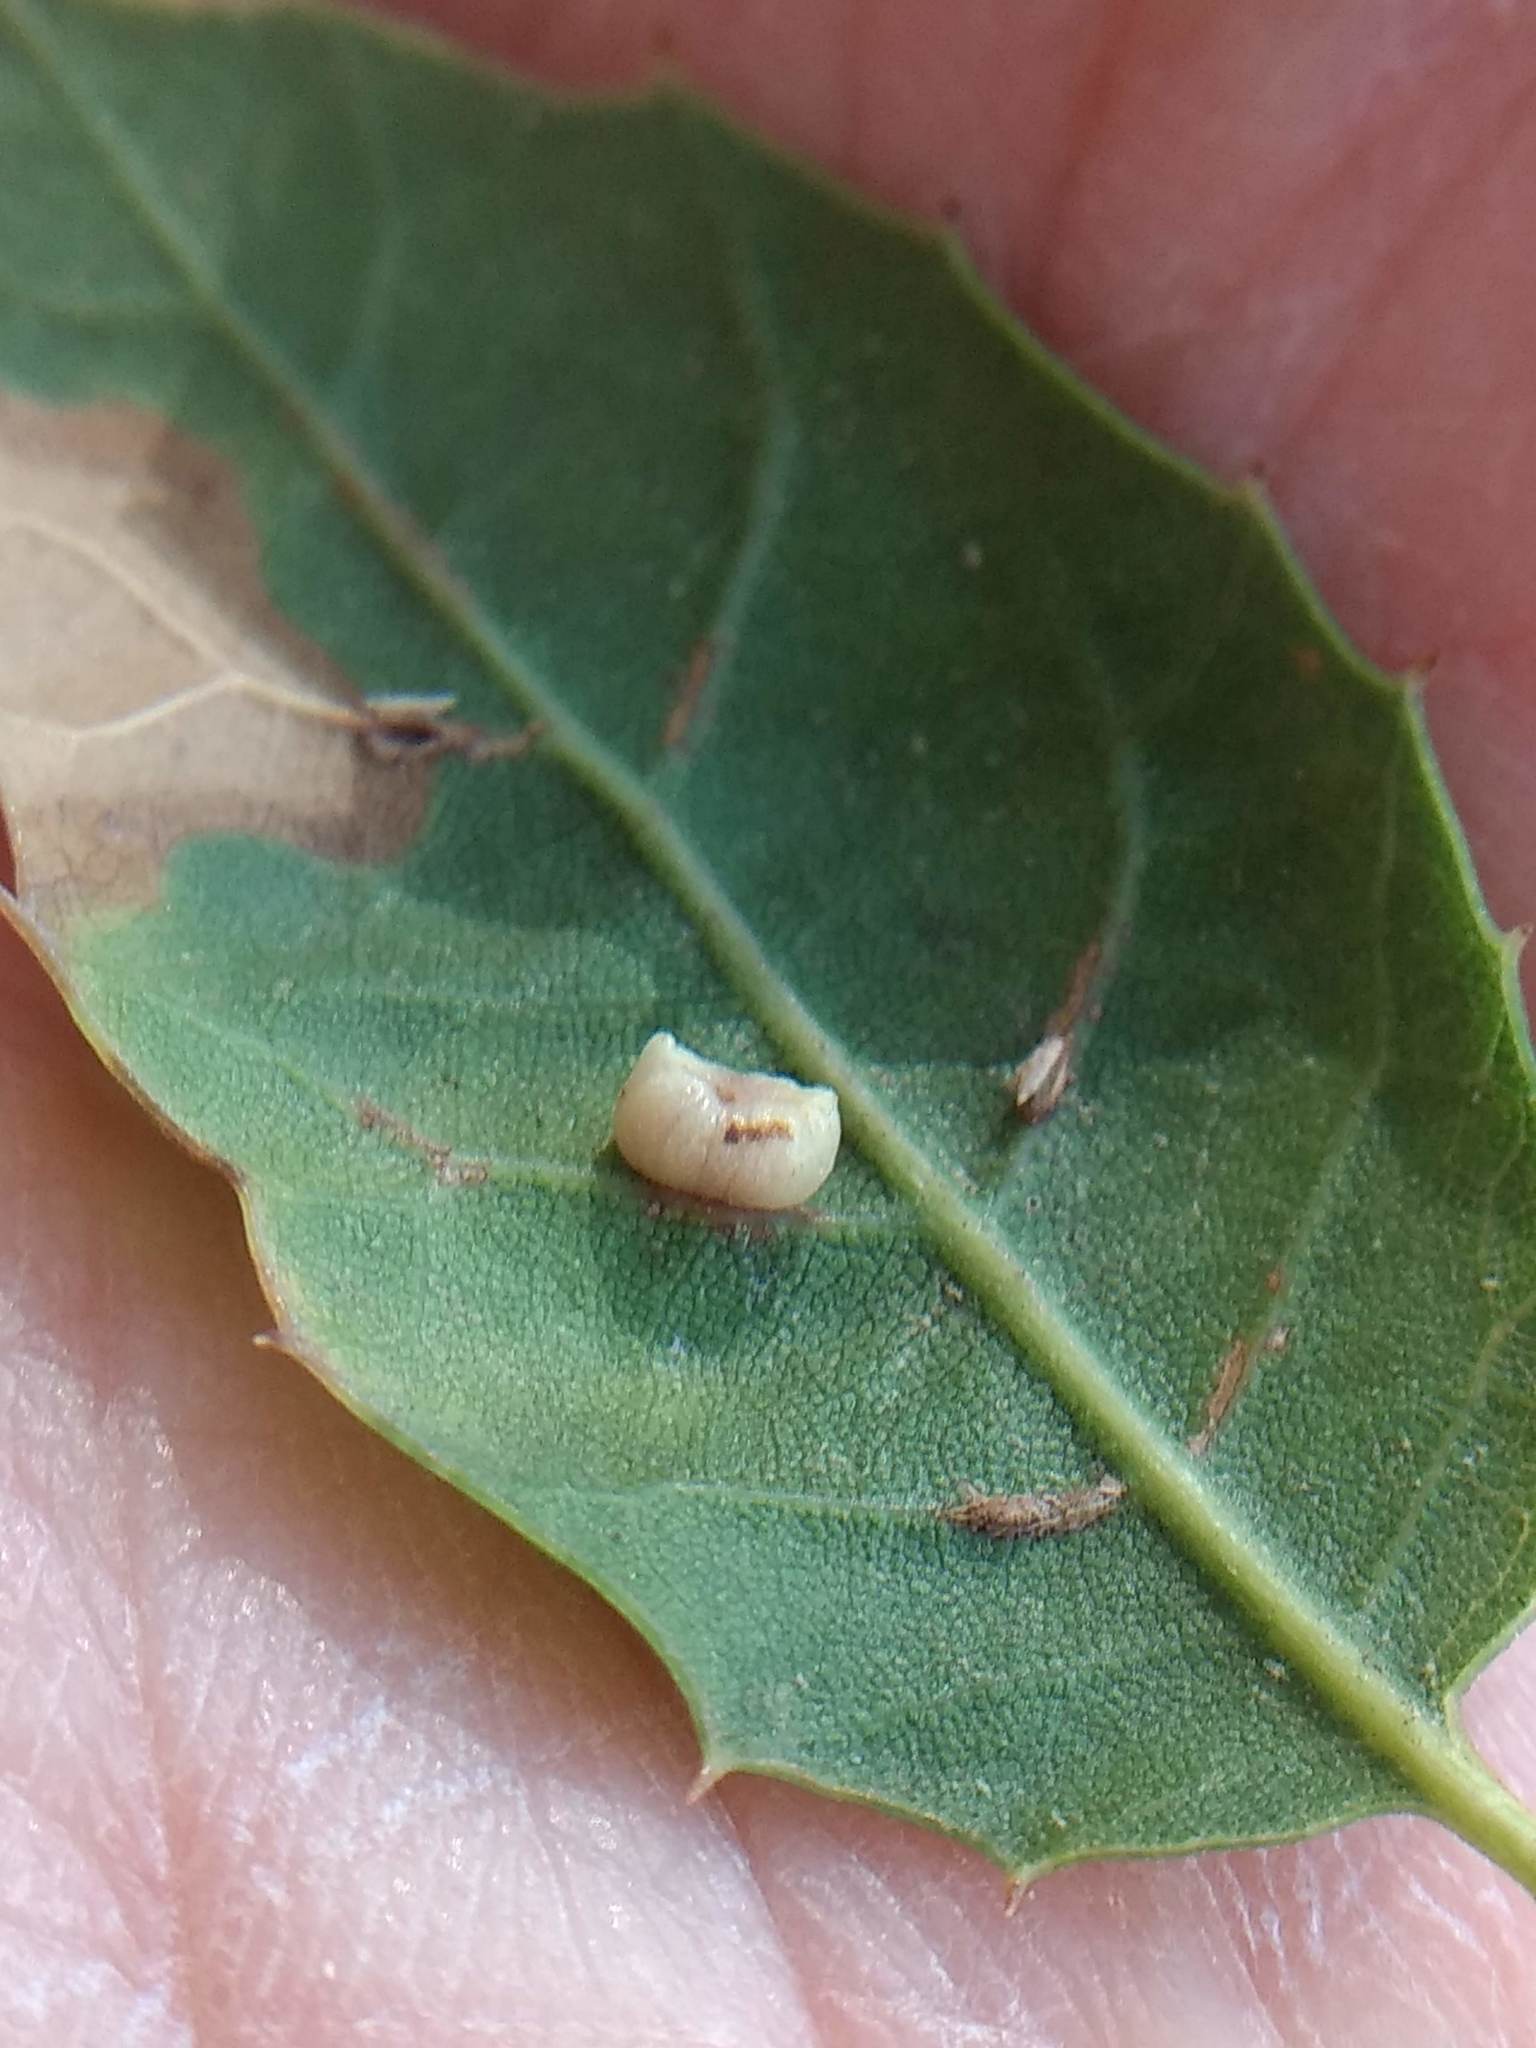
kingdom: Animalia
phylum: Arthropoda
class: Insecta
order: Hymenoptera
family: Cynipidae
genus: Dryocosmus
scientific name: Dryocosmus
